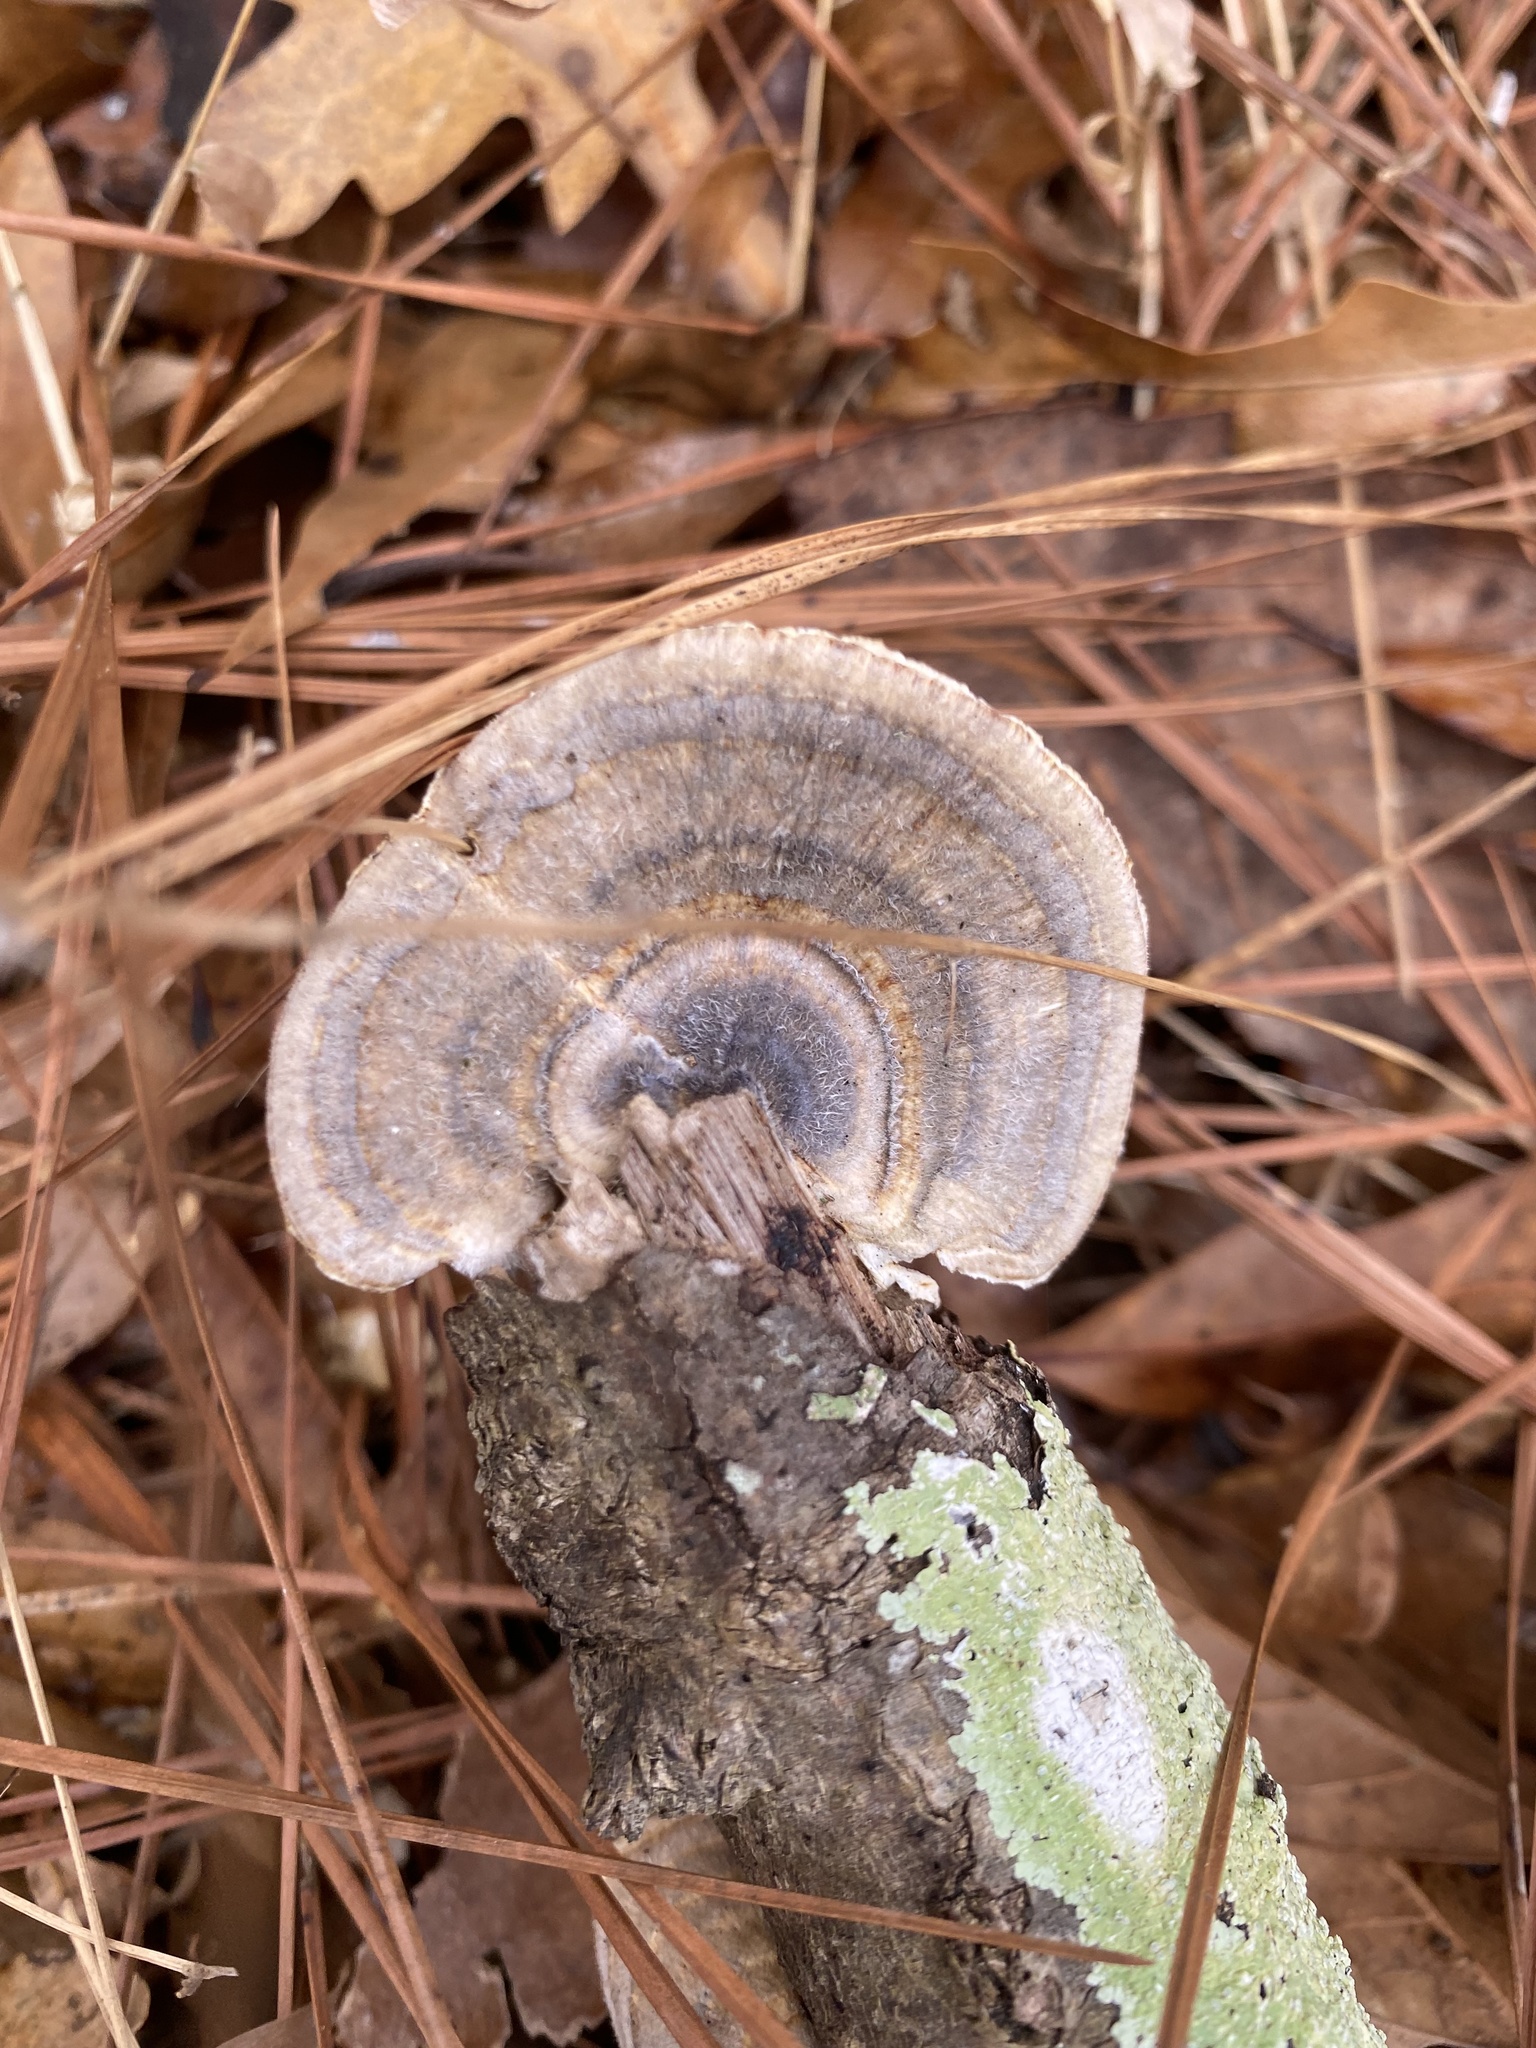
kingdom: Fungi
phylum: Basidiomycota
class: Agaricomycetes
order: Polyporales
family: Polyporaceae
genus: Trametes
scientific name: Trametes versicolor
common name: Turkeytail
